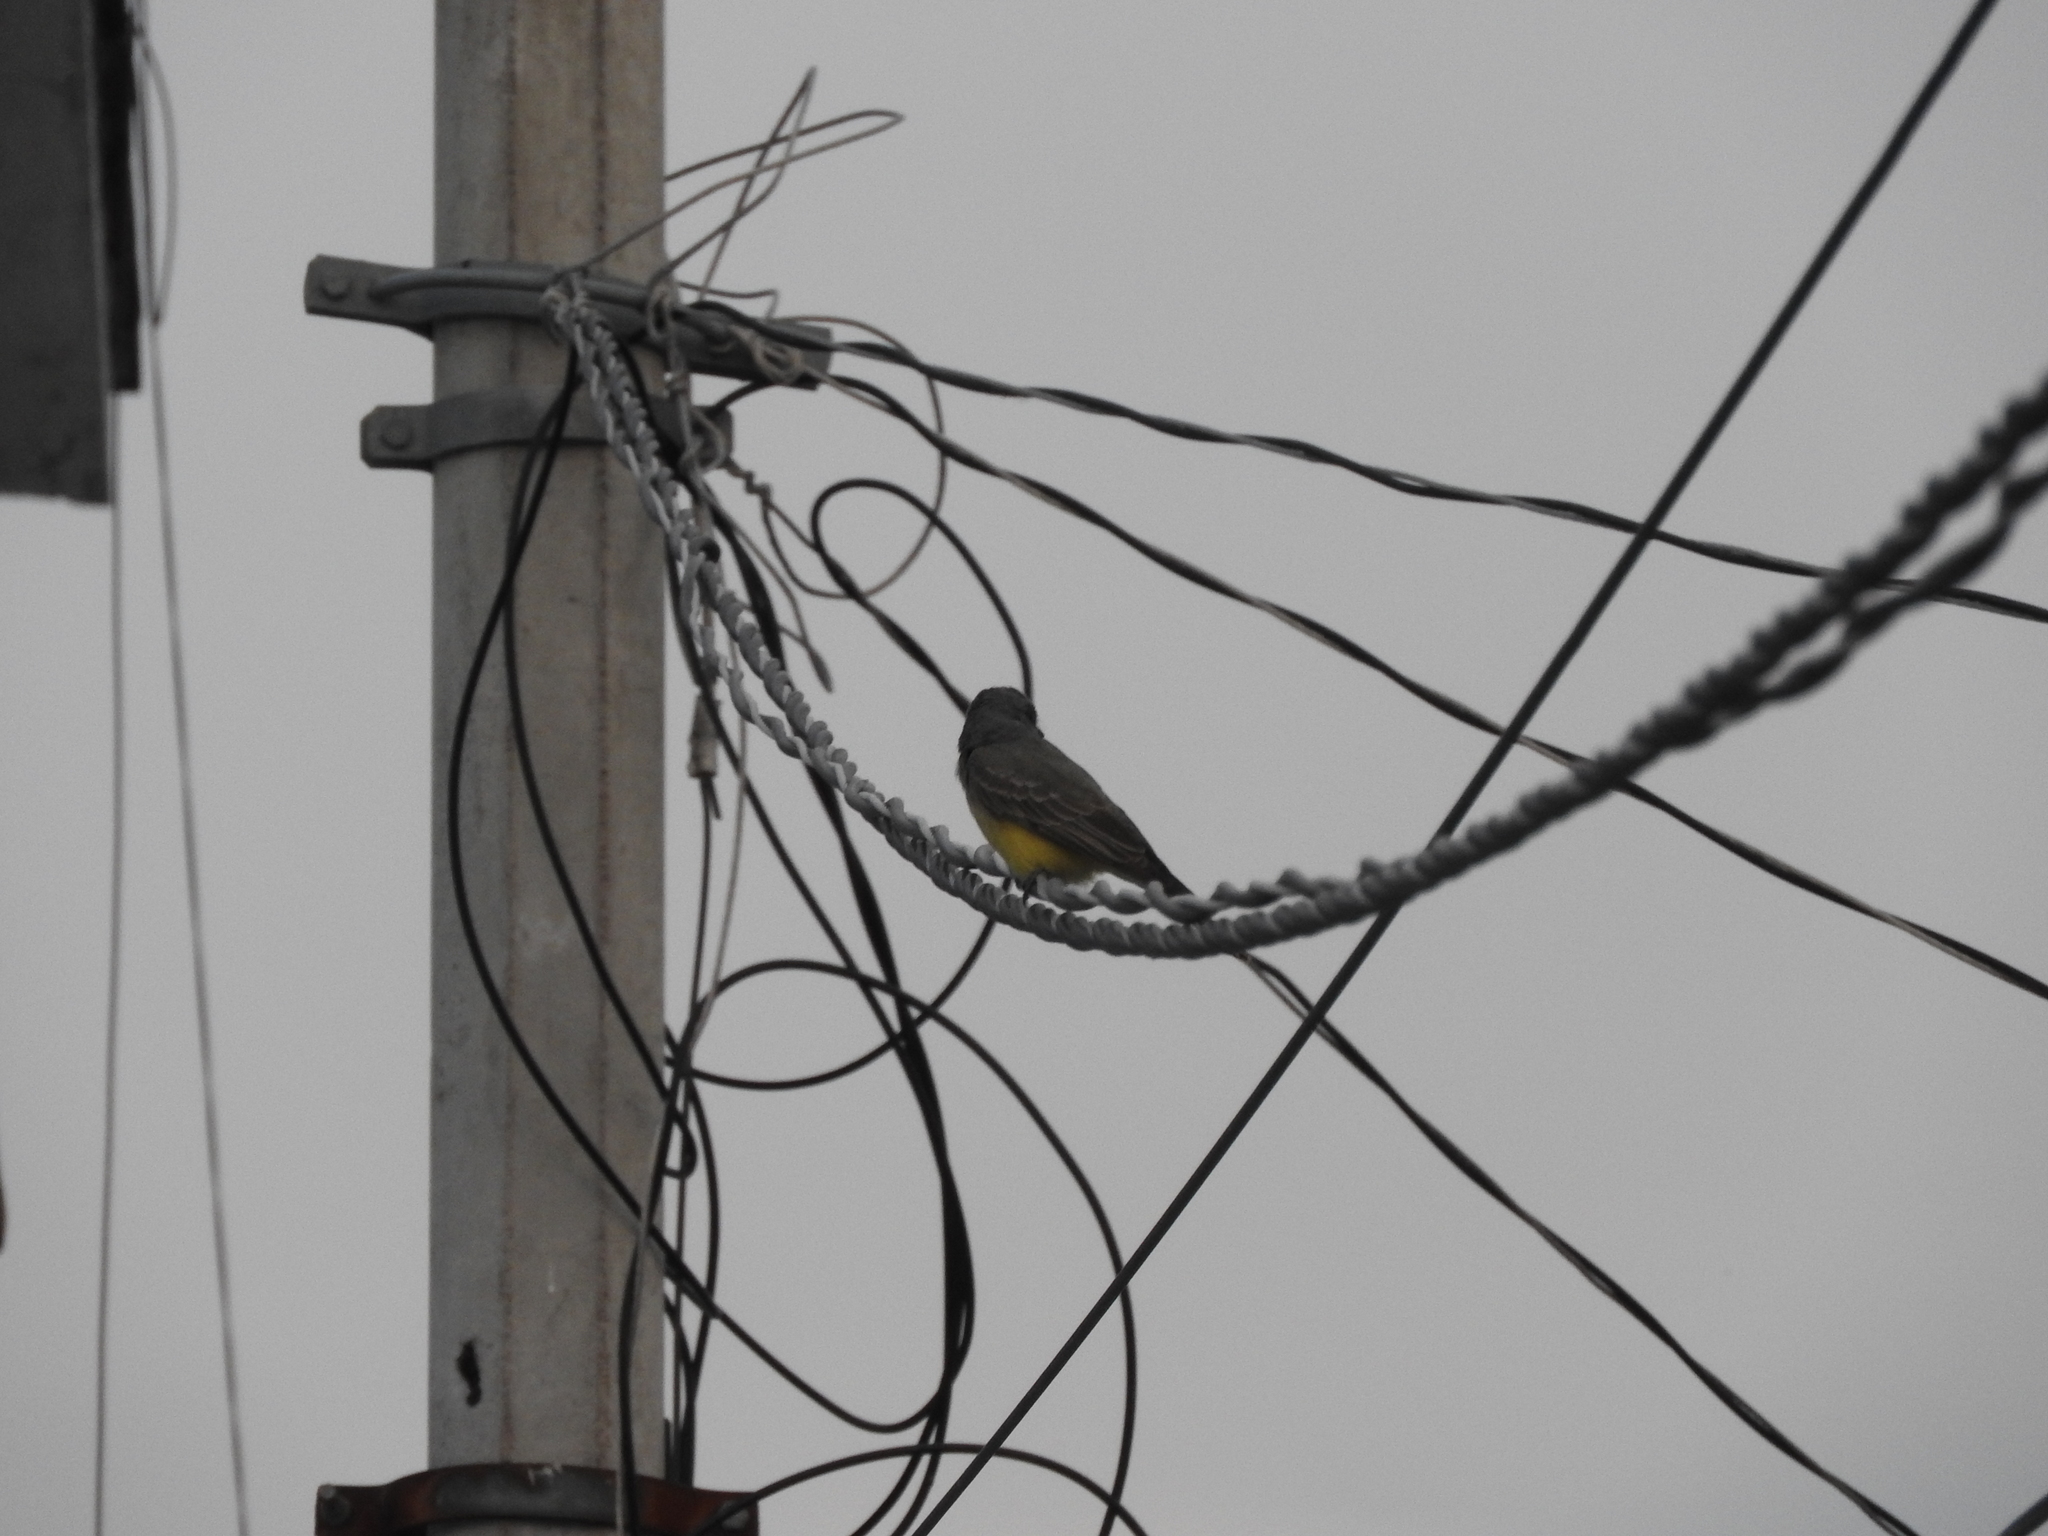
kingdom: Animalia
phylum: Chordata
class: Aves
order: Passeriformes
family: Tyrannidae
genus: Tyrannus
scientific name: Tyrannus vociferans
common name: Cassin's kingbird
